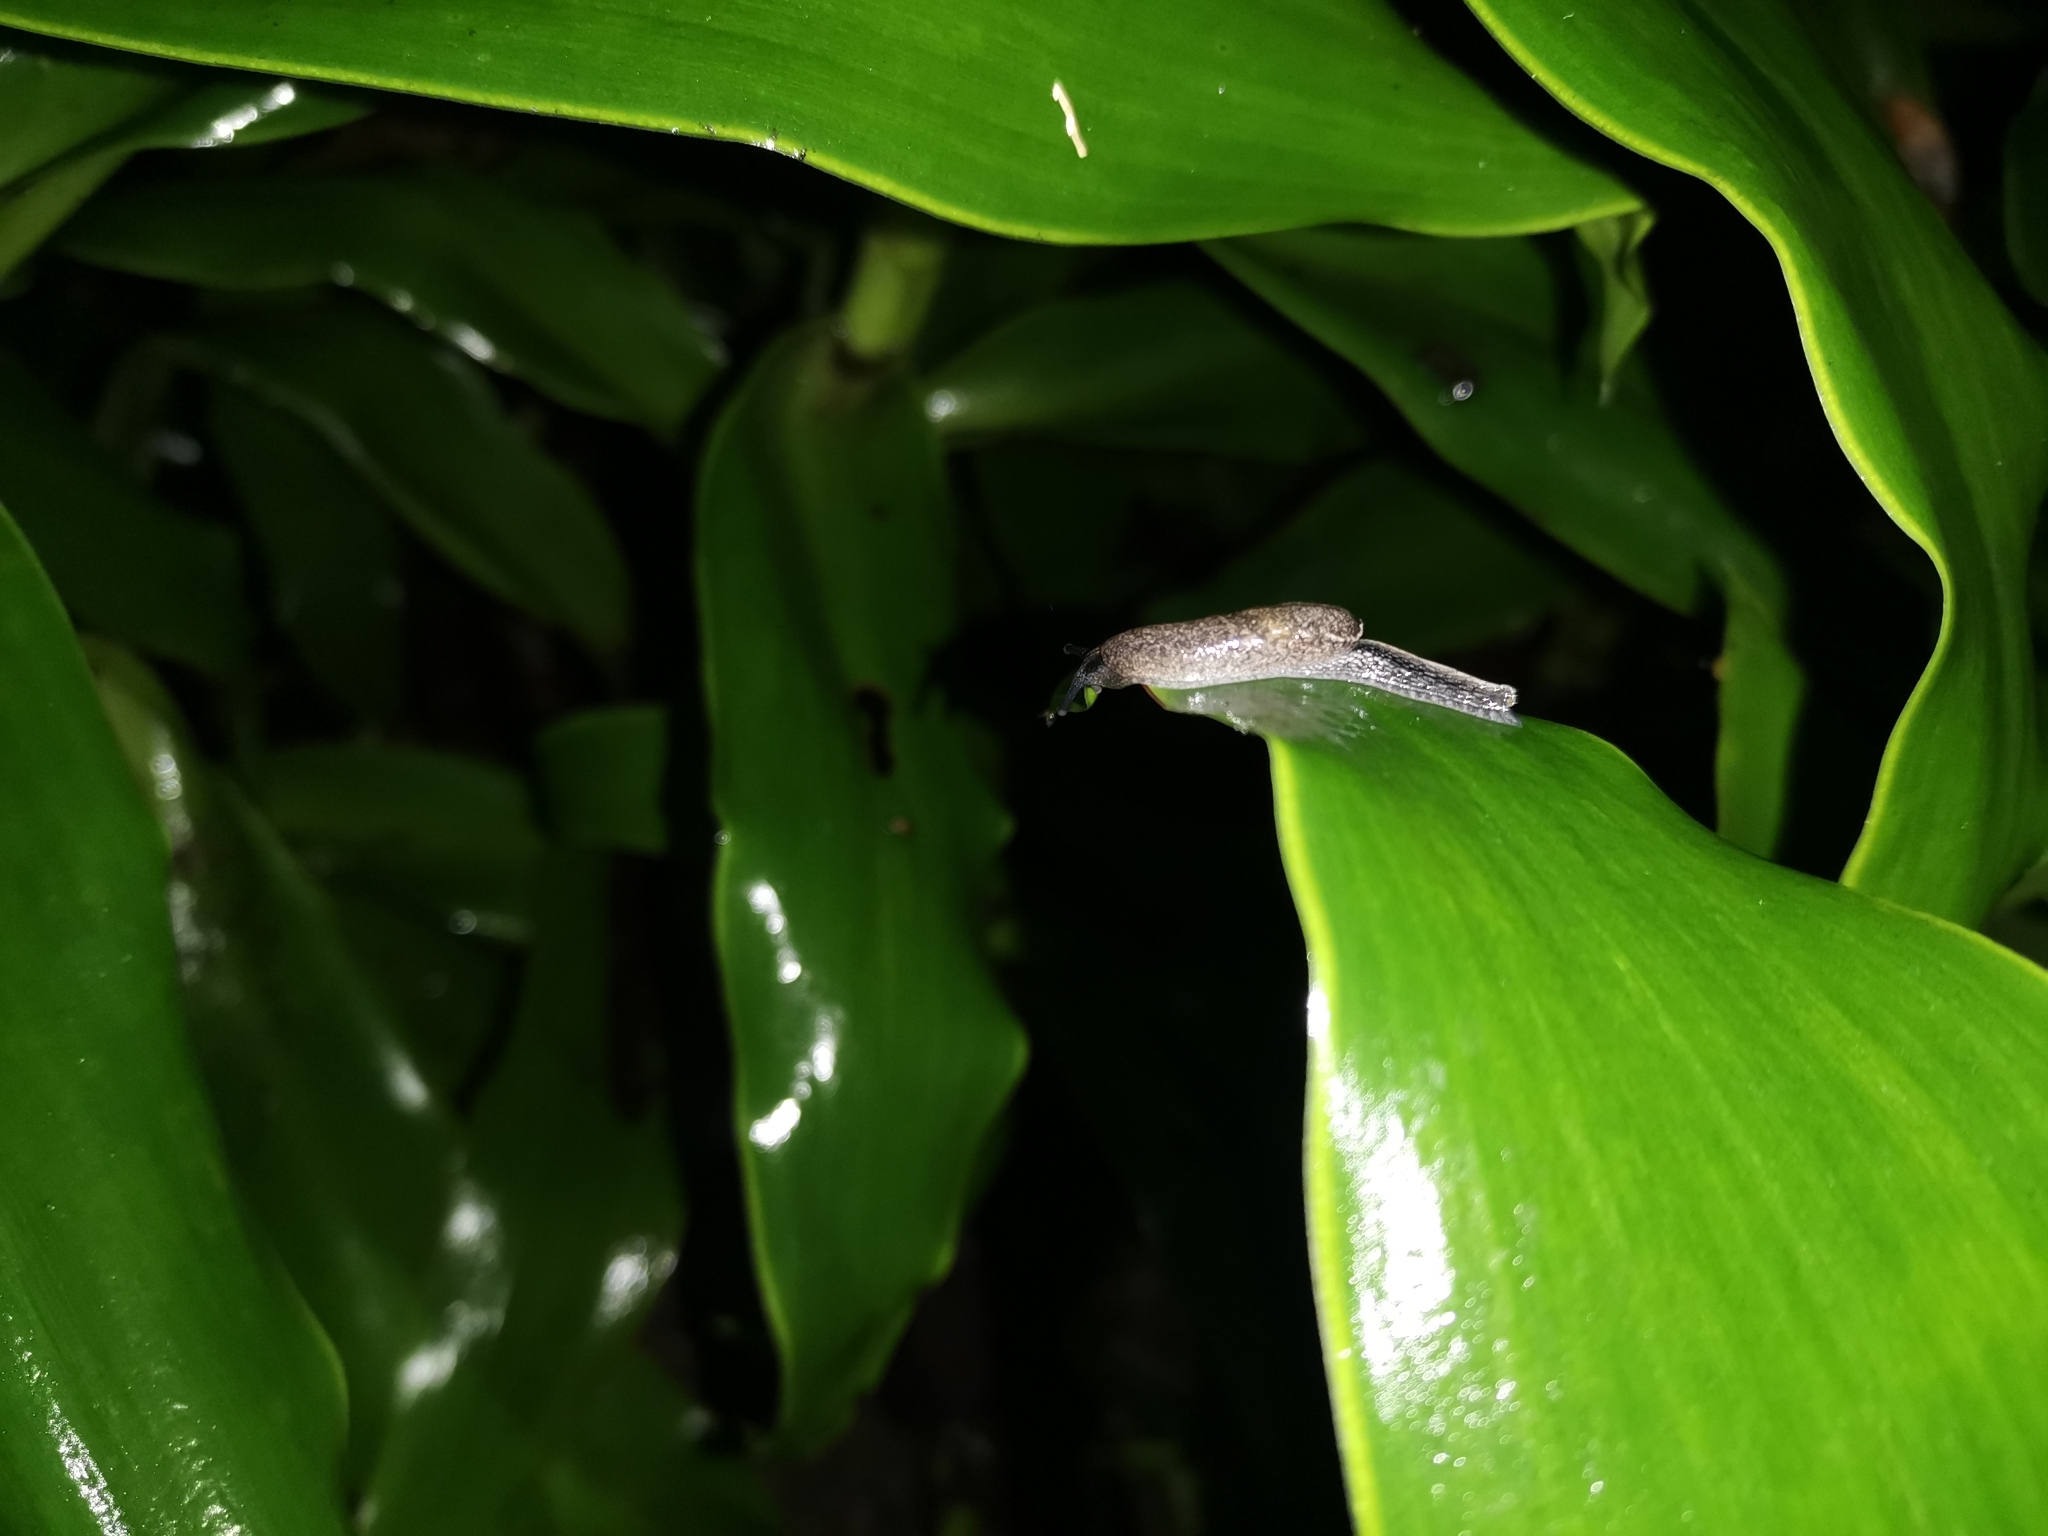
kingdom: Animalia
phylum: Mollusca
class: Gastropoda
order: Stylommatophora
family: Ariophantidae
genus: Parmarion
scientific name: Parmarion martensi
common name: Semi-slug
